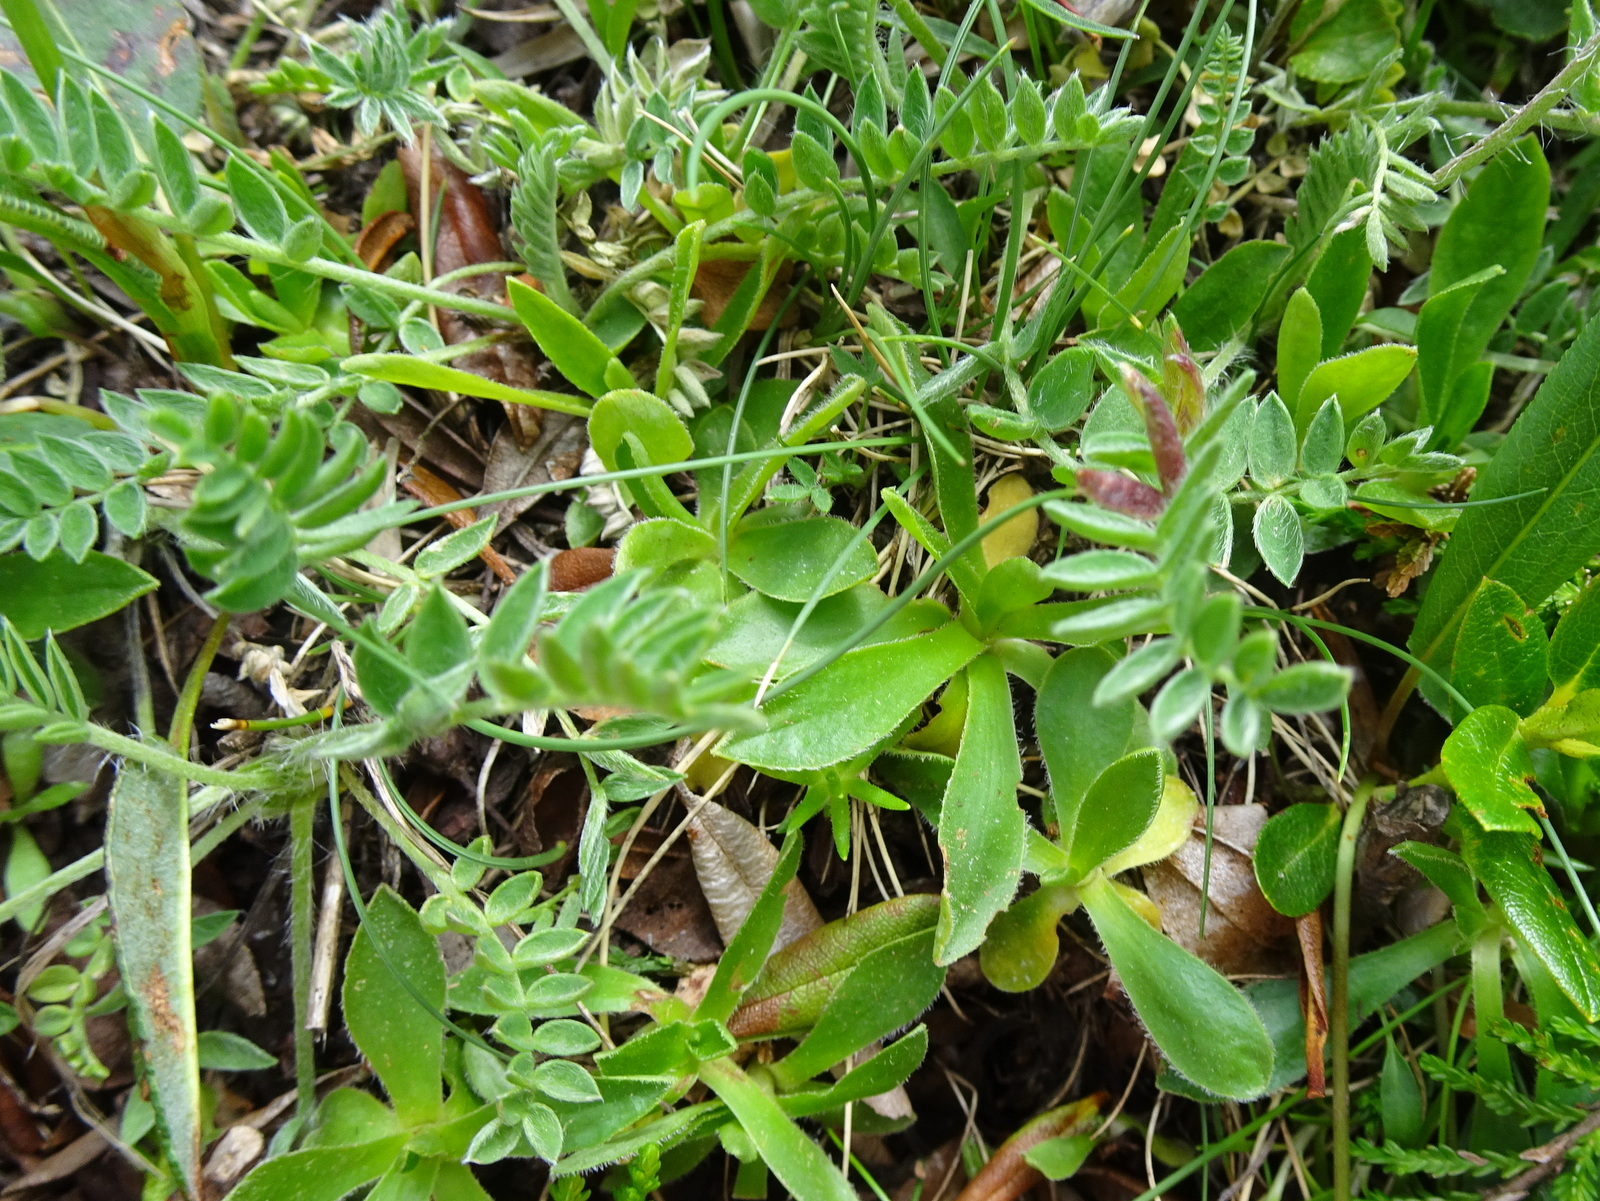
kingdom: Plantae
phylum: Tracheophyta
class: Magnoliopsida
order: Fabales
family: Fabaceae
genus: Oxytropis
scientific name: Oxytropis halleri
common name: Purple oxytropis
